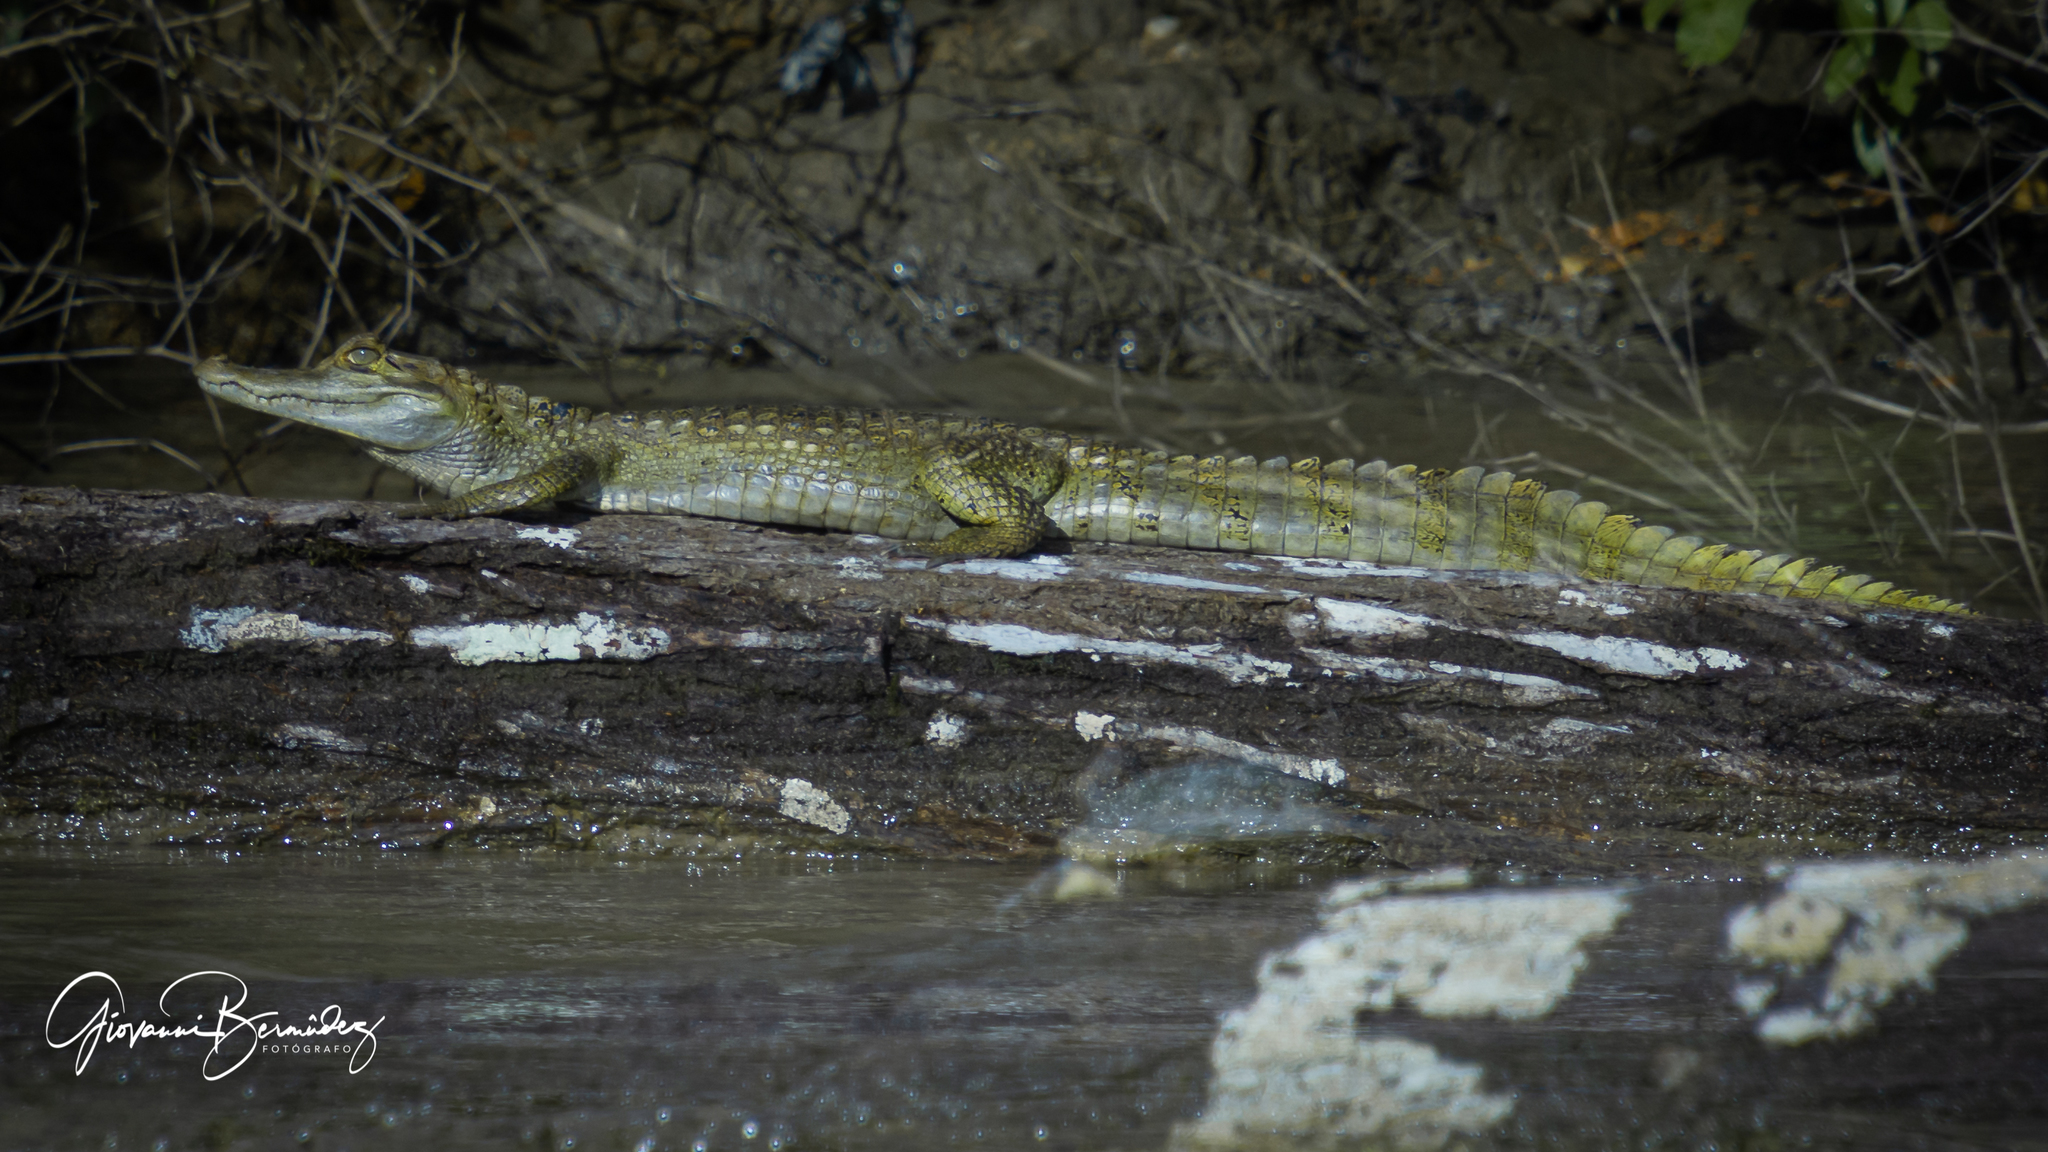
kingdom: Animalia
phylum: Chordata
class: Crocodylia
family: Alligatoridae
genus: Caiman
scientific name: Caiman crocodilus
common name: Common caiman
